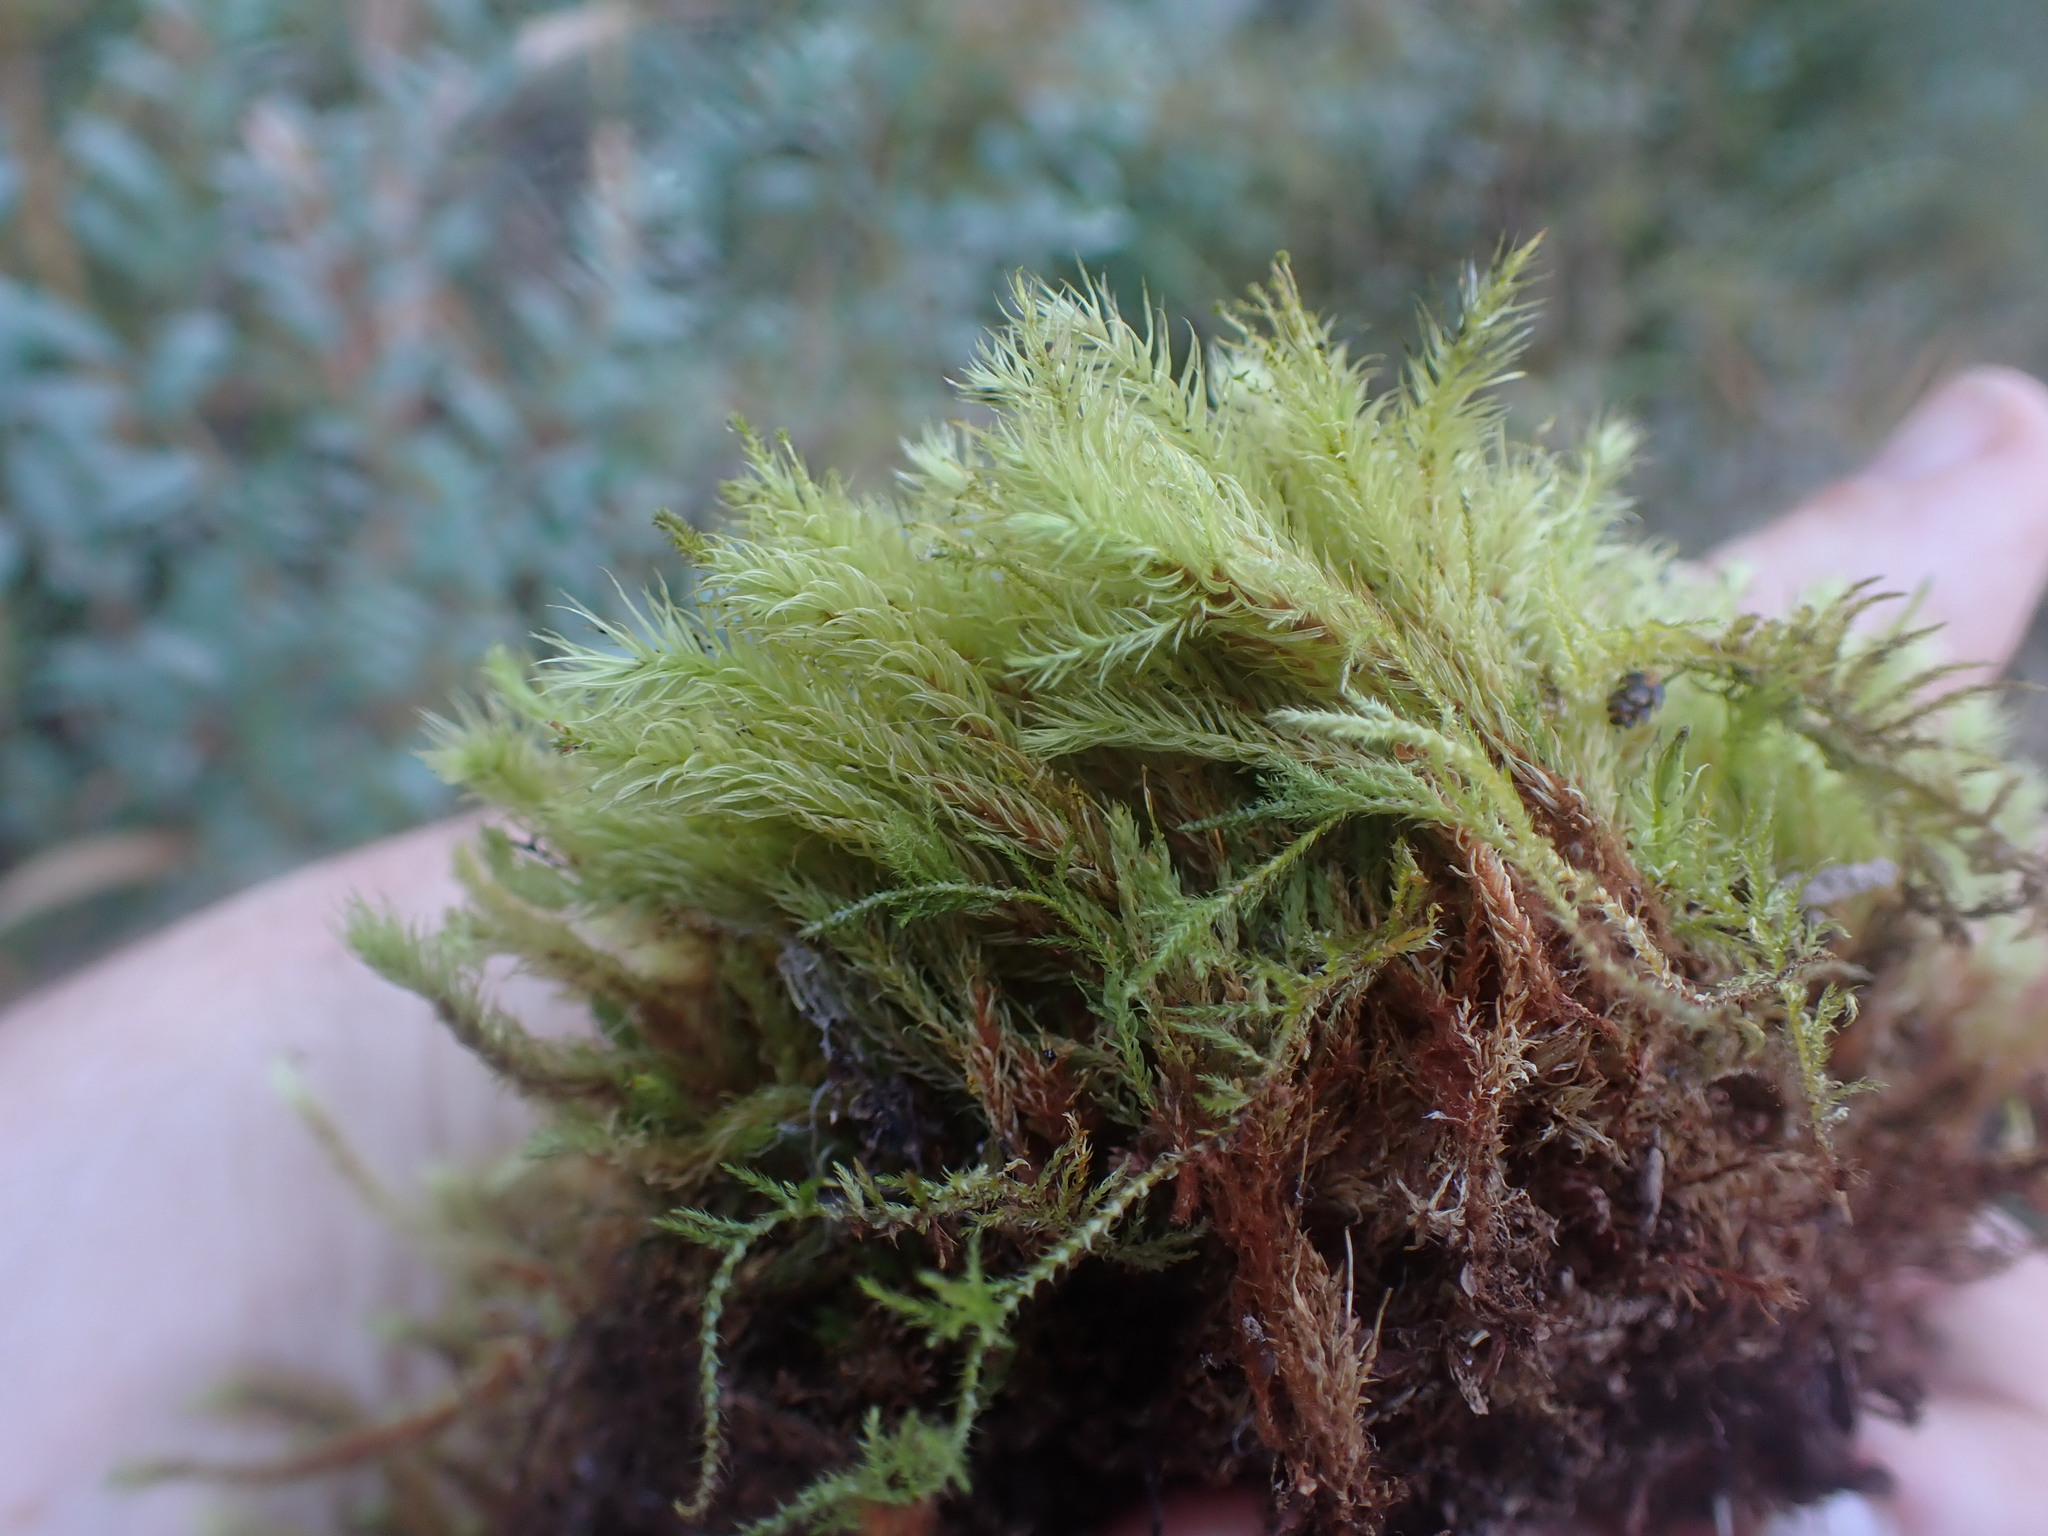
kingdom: Plantae
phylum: Bryophyta
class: Bryopsida
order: Aulacomniales
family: Aulacomniaceae
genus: Aulacomnium
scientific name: Aulacomnium palustre
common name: Bog groove-moss
